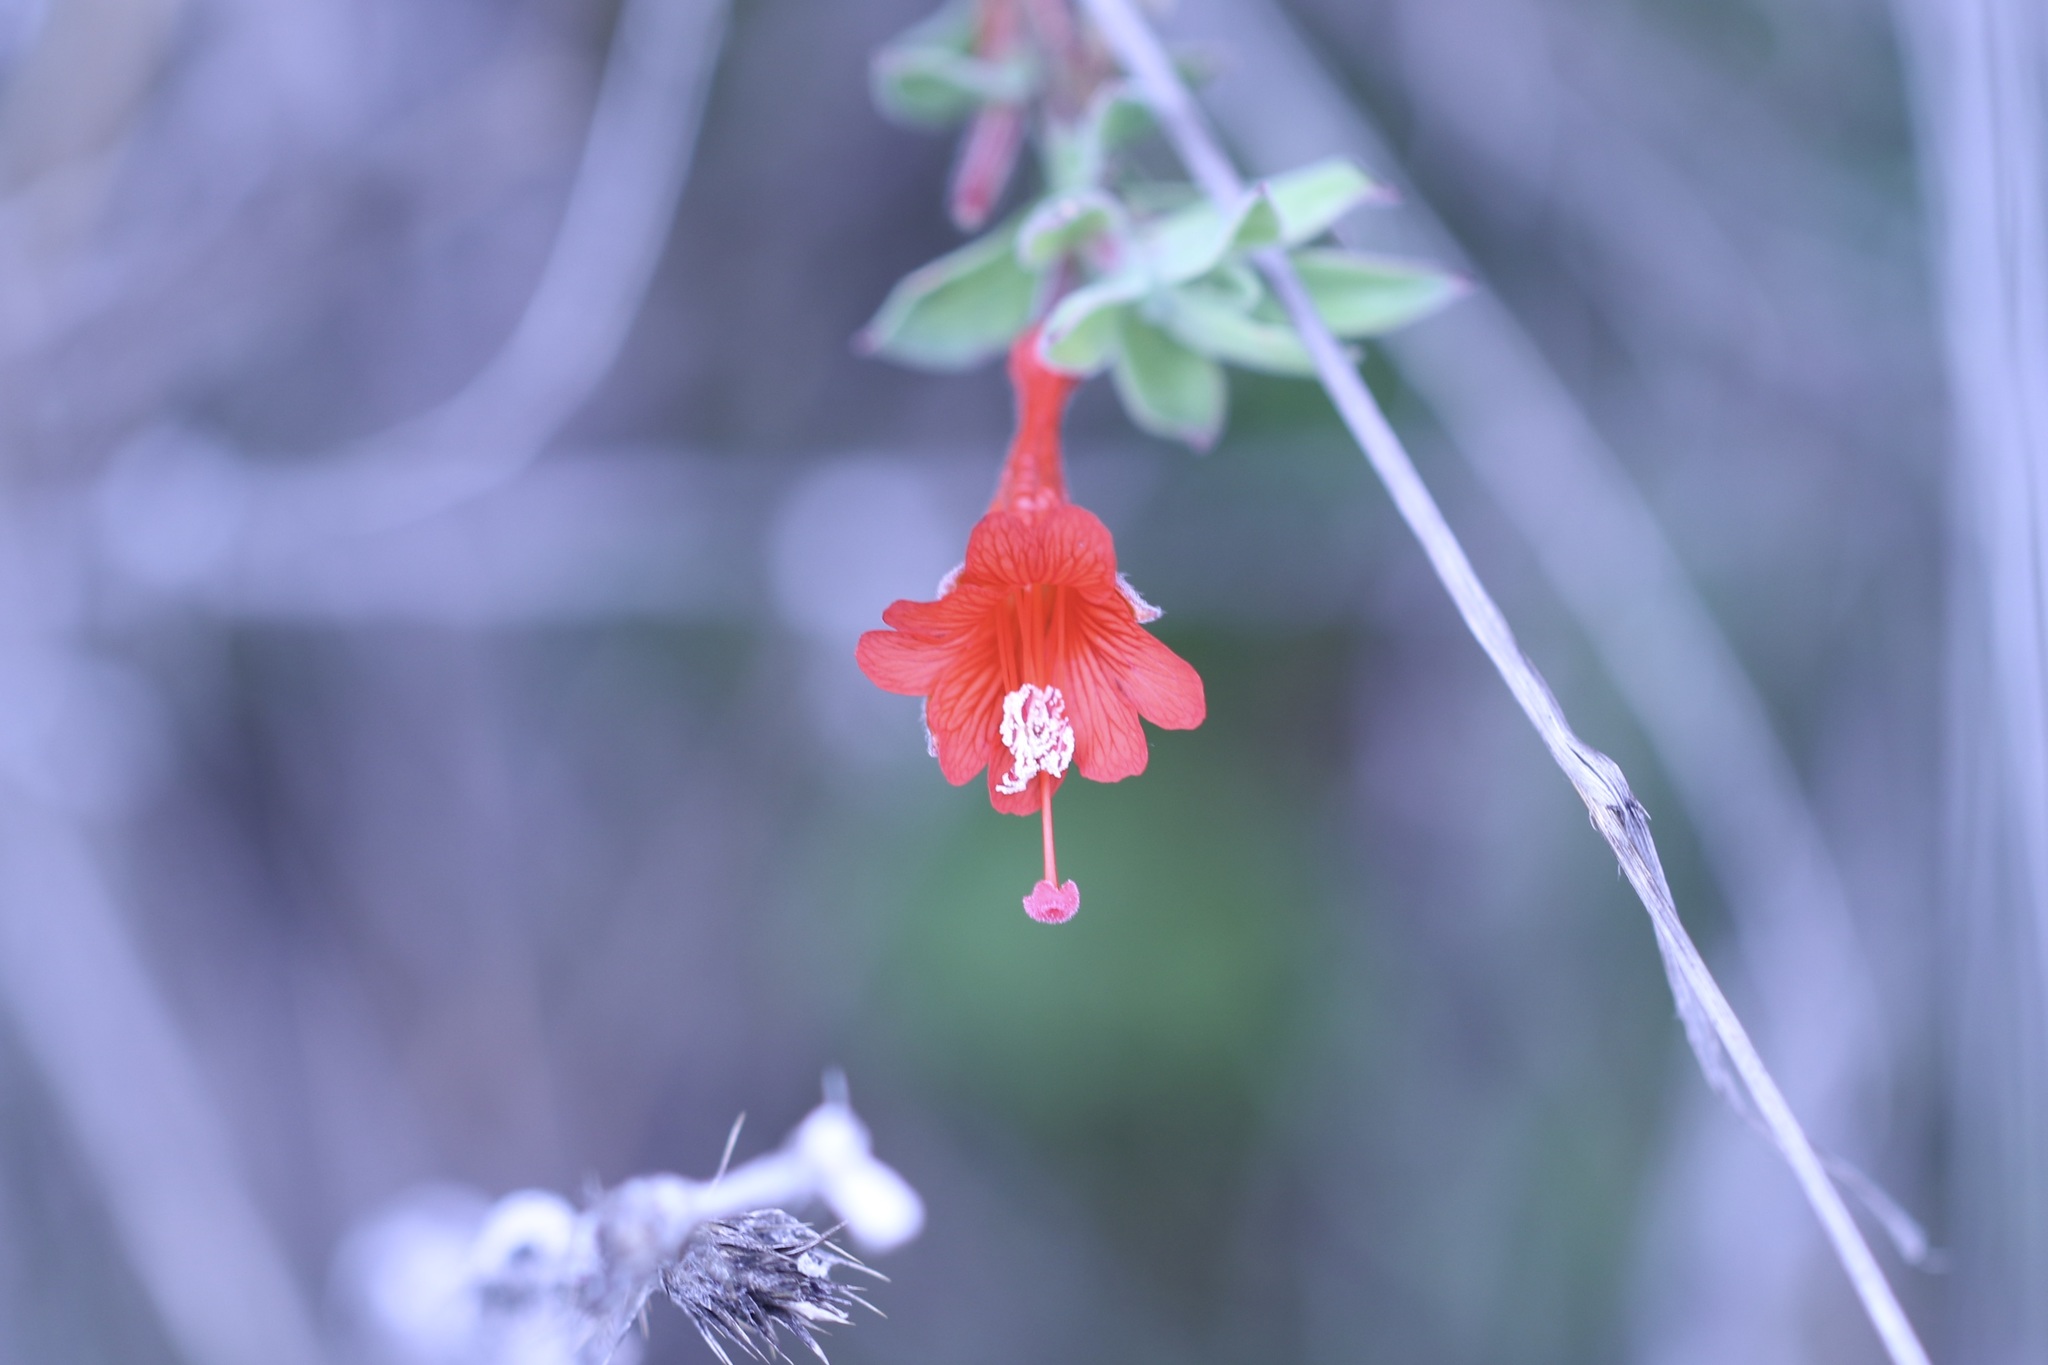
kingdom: Plantae
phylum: Tracheophyta
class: Magnoliopsida
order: Myrtales
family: Onagraceae
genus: Epilobium
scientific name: Epilobium canum
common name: California-fuchsia
